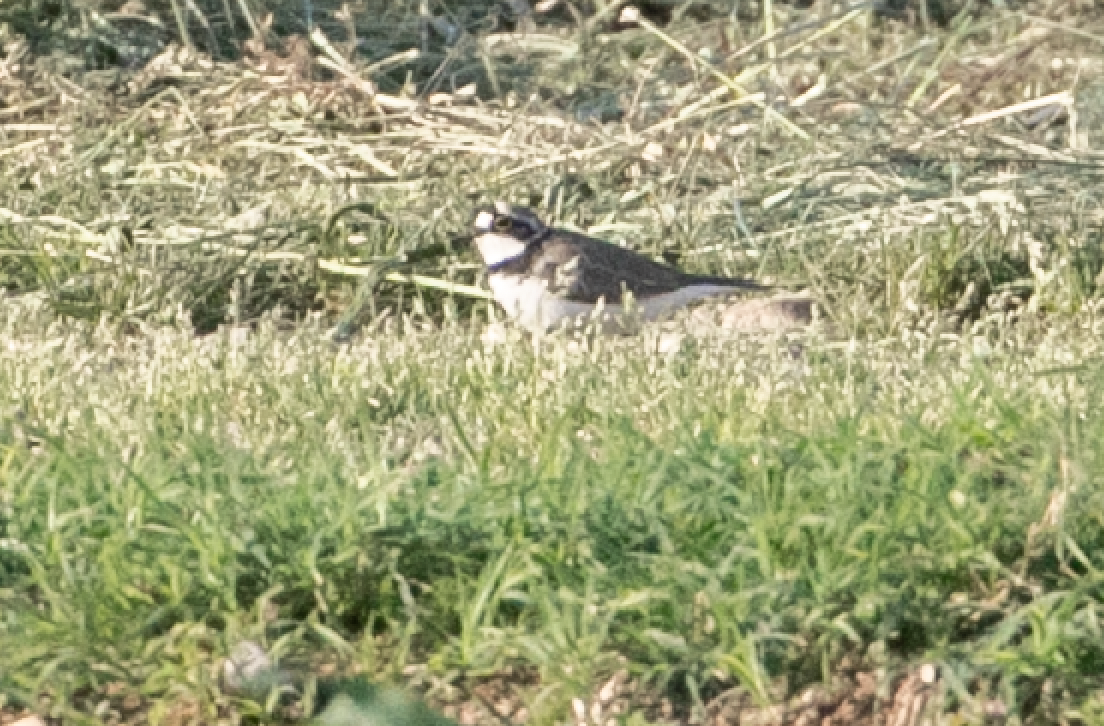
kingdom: Animalia
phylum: Chordata
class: Aves
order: Charadriiformes
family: Charadriidae
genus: Charadrius
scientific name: Charadrius dubius
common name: Little ringed plover
